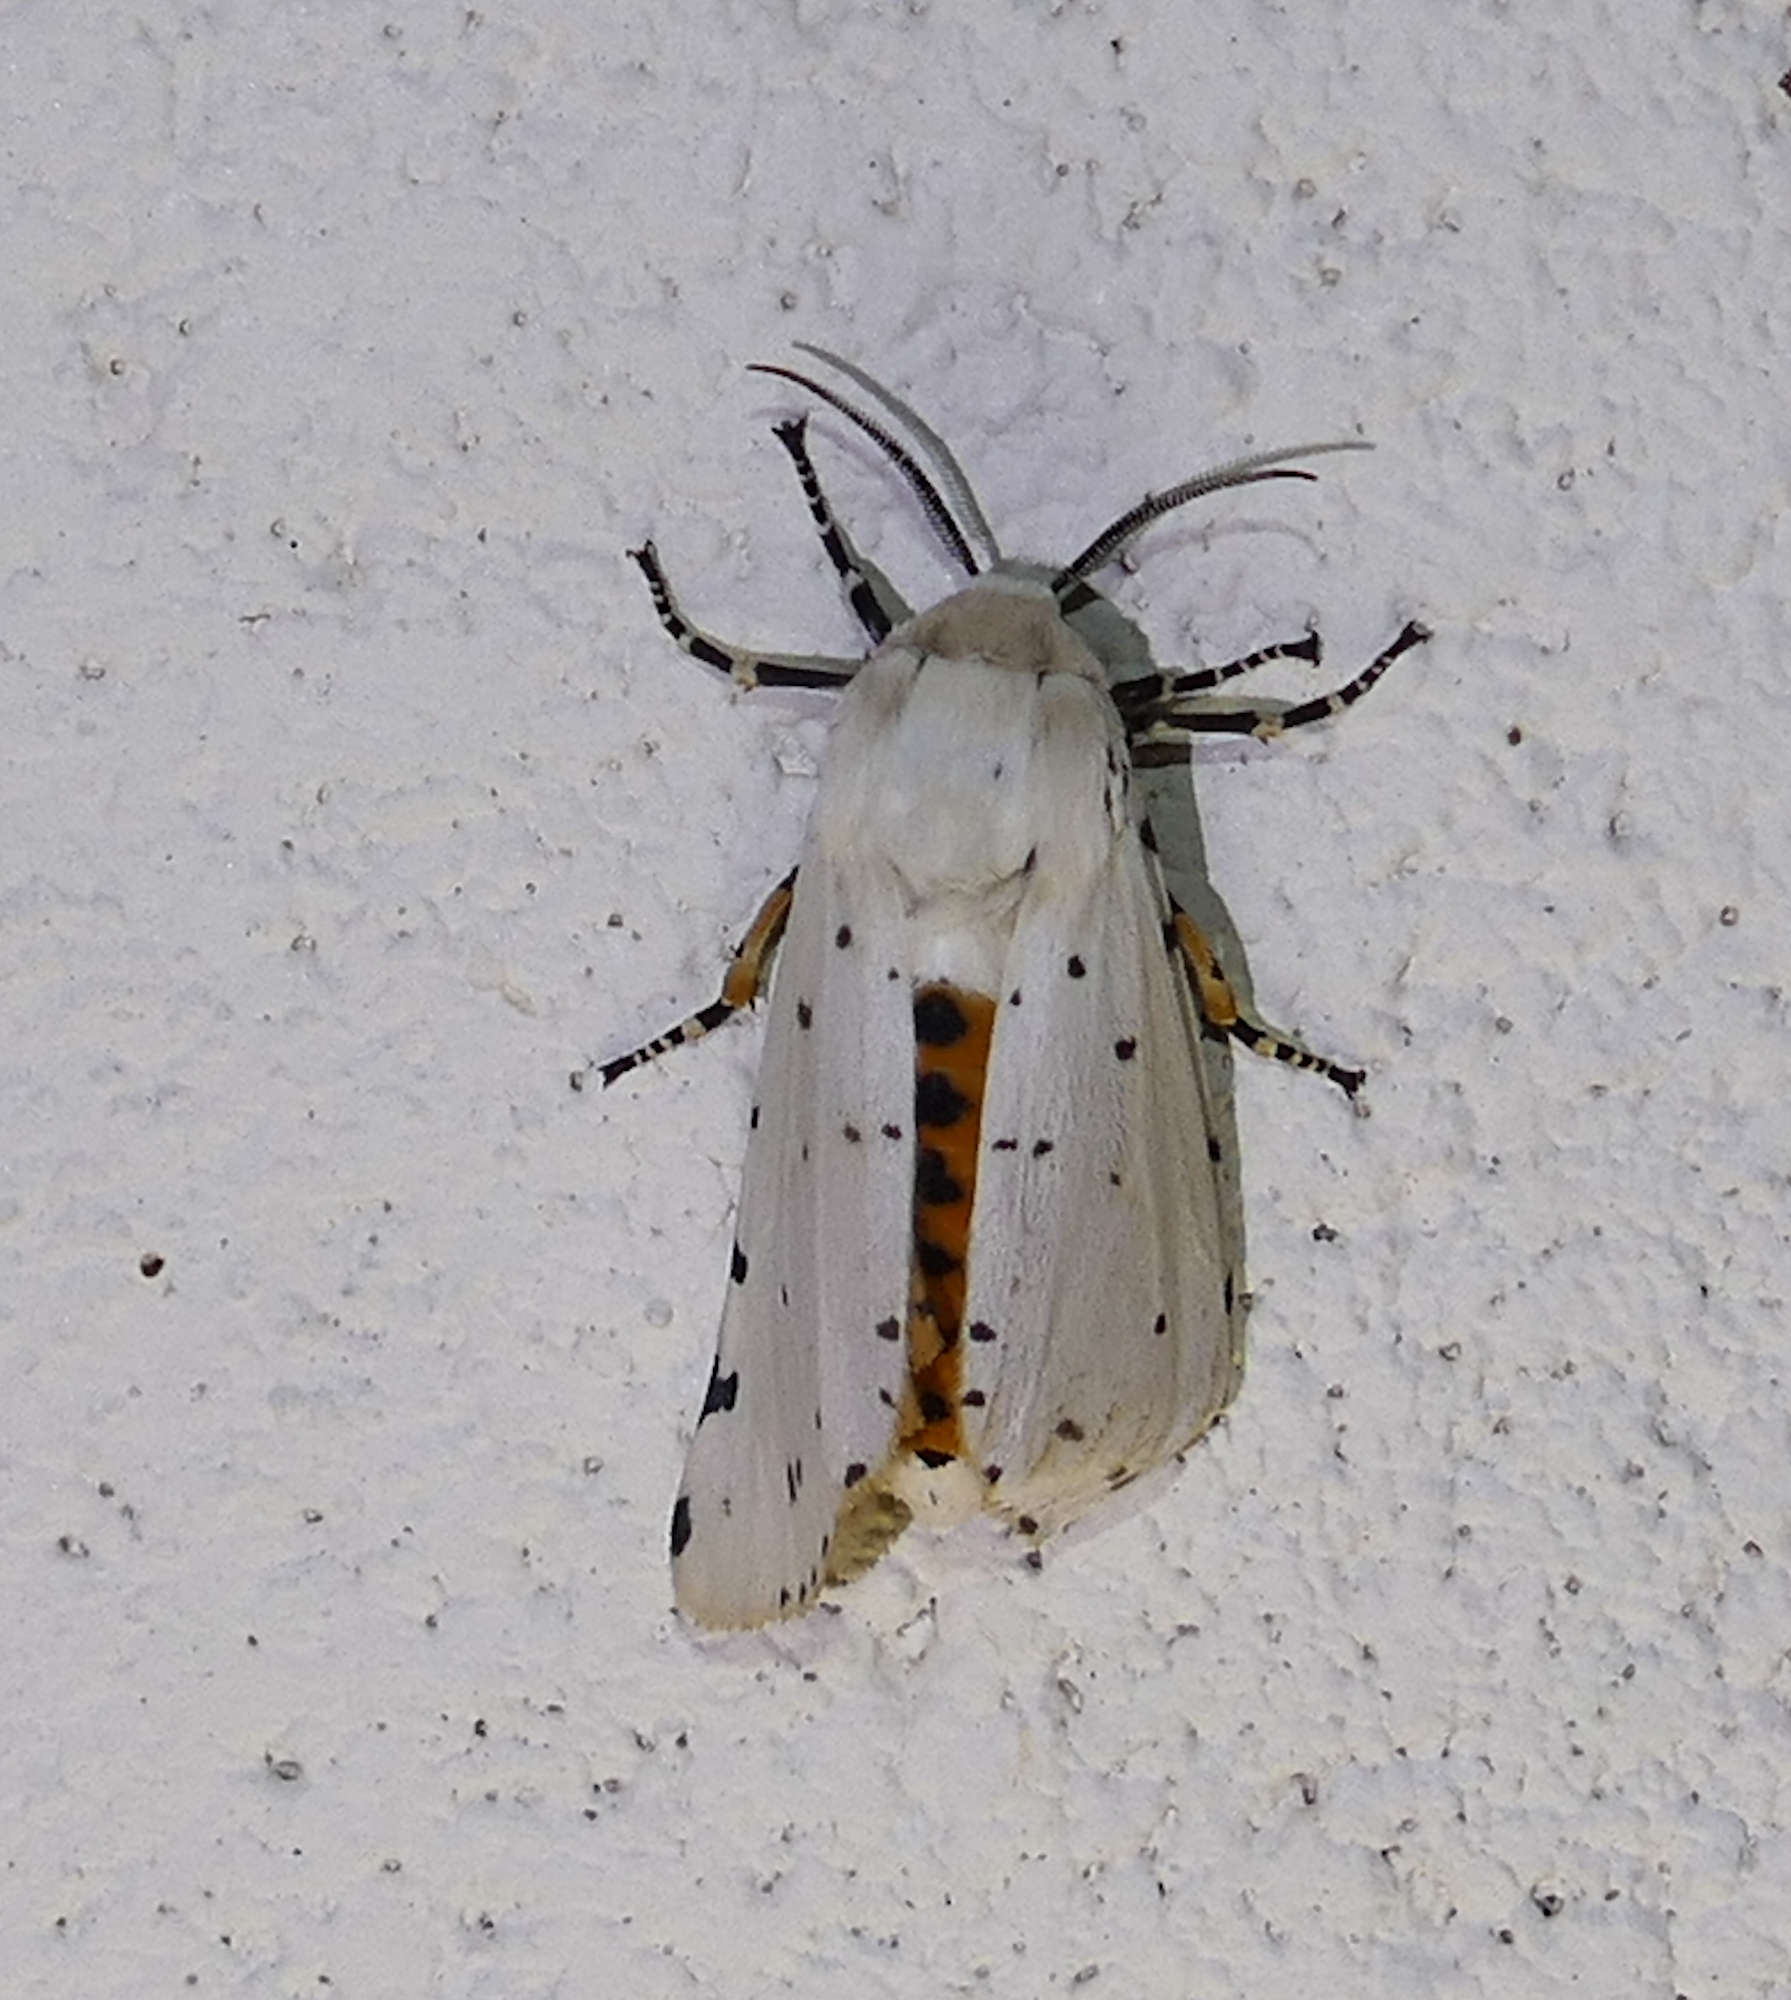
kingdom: Animalia
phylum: Arthropoda
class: Insecta
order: Lepidoptera
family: Erebidae
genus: Estigmene
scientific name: Estigmene acrea
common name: Salt marsh moth
